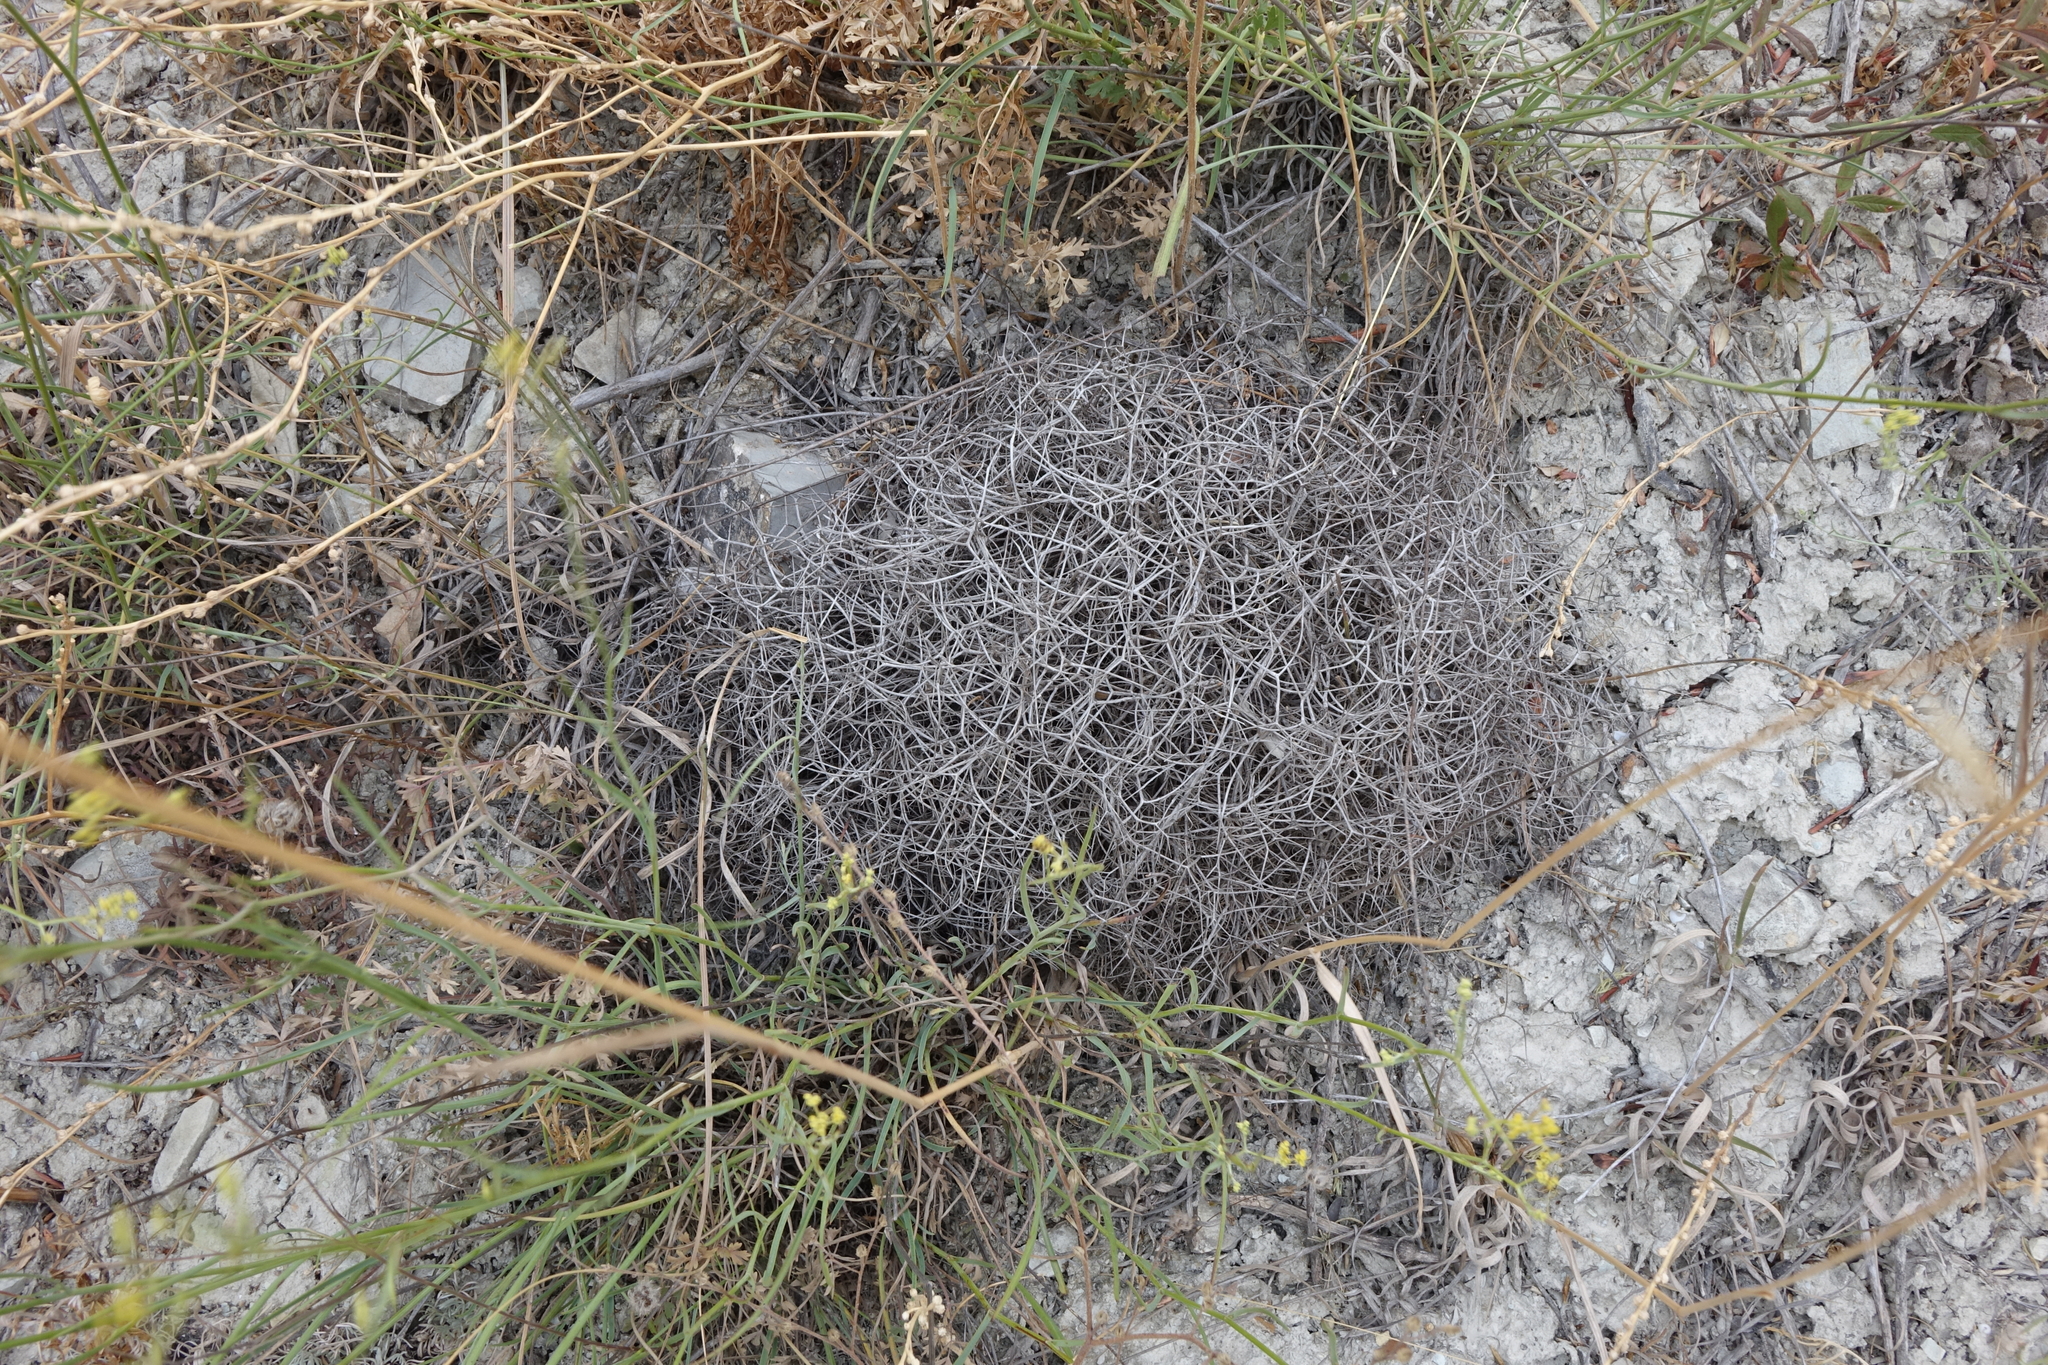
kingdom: Plantae
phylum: Tracheophyta
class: Magnoliopsida
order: Fabales
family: Fabaceae
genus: Onobrychis
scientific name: Onobrychis cornuta
